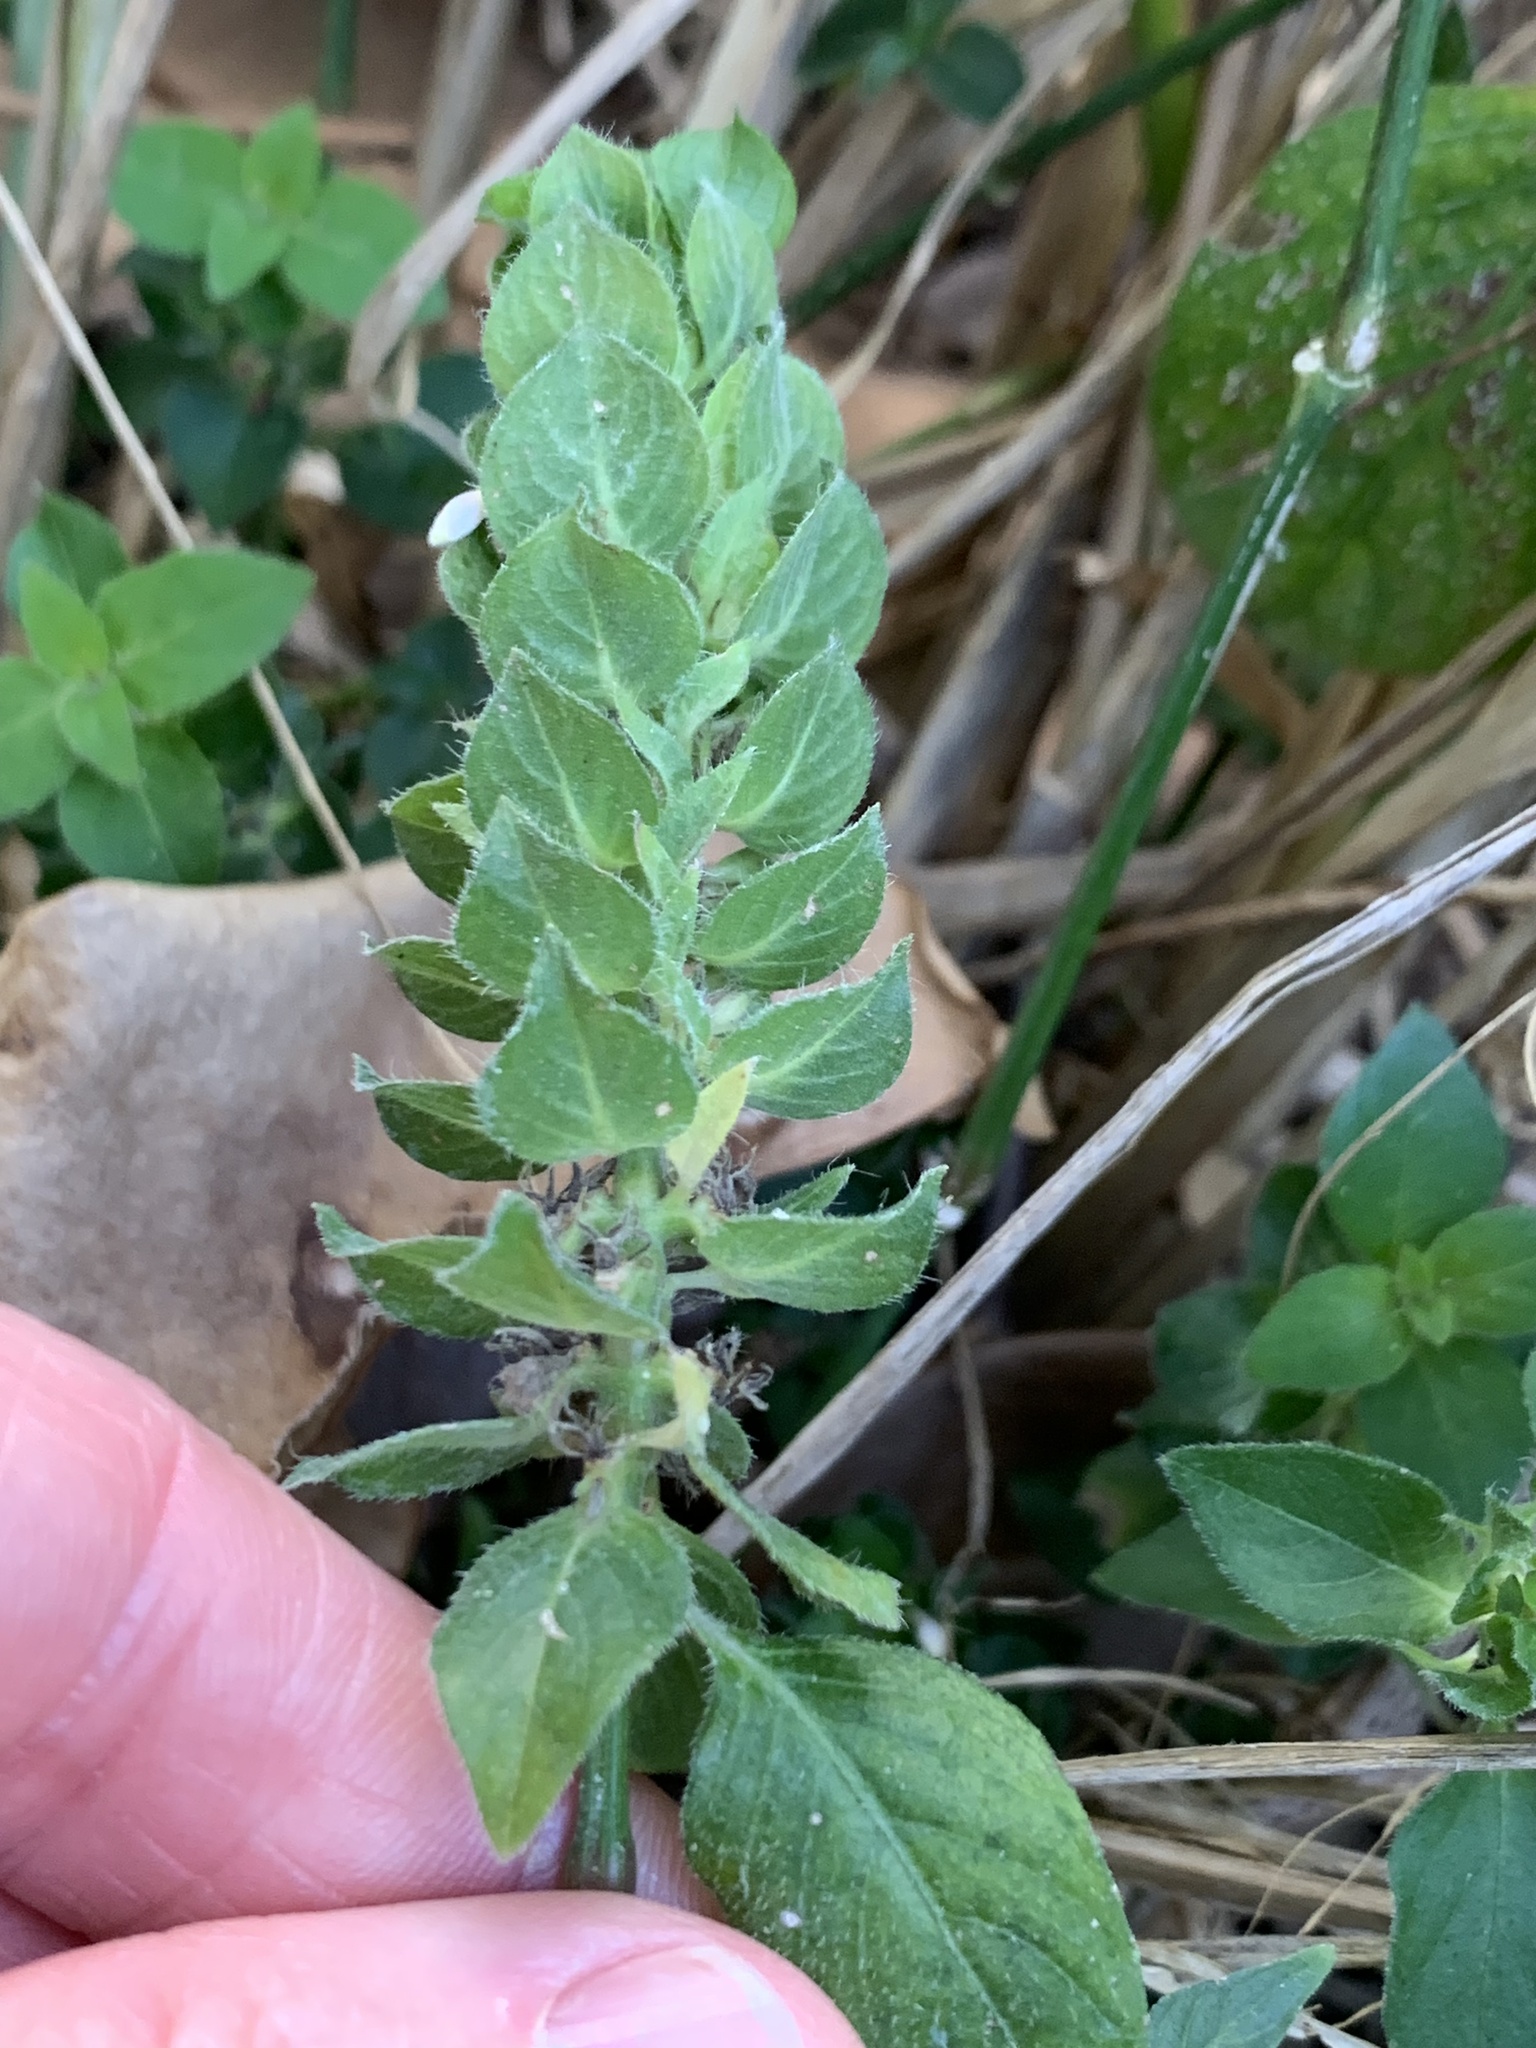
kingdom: Plantae
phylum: Tracheophyta
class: Magnoliopsida
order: Lamiales
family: Acanthaceae
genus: Ruellia
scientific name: Ruellia blechum
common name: Browne's blechum
